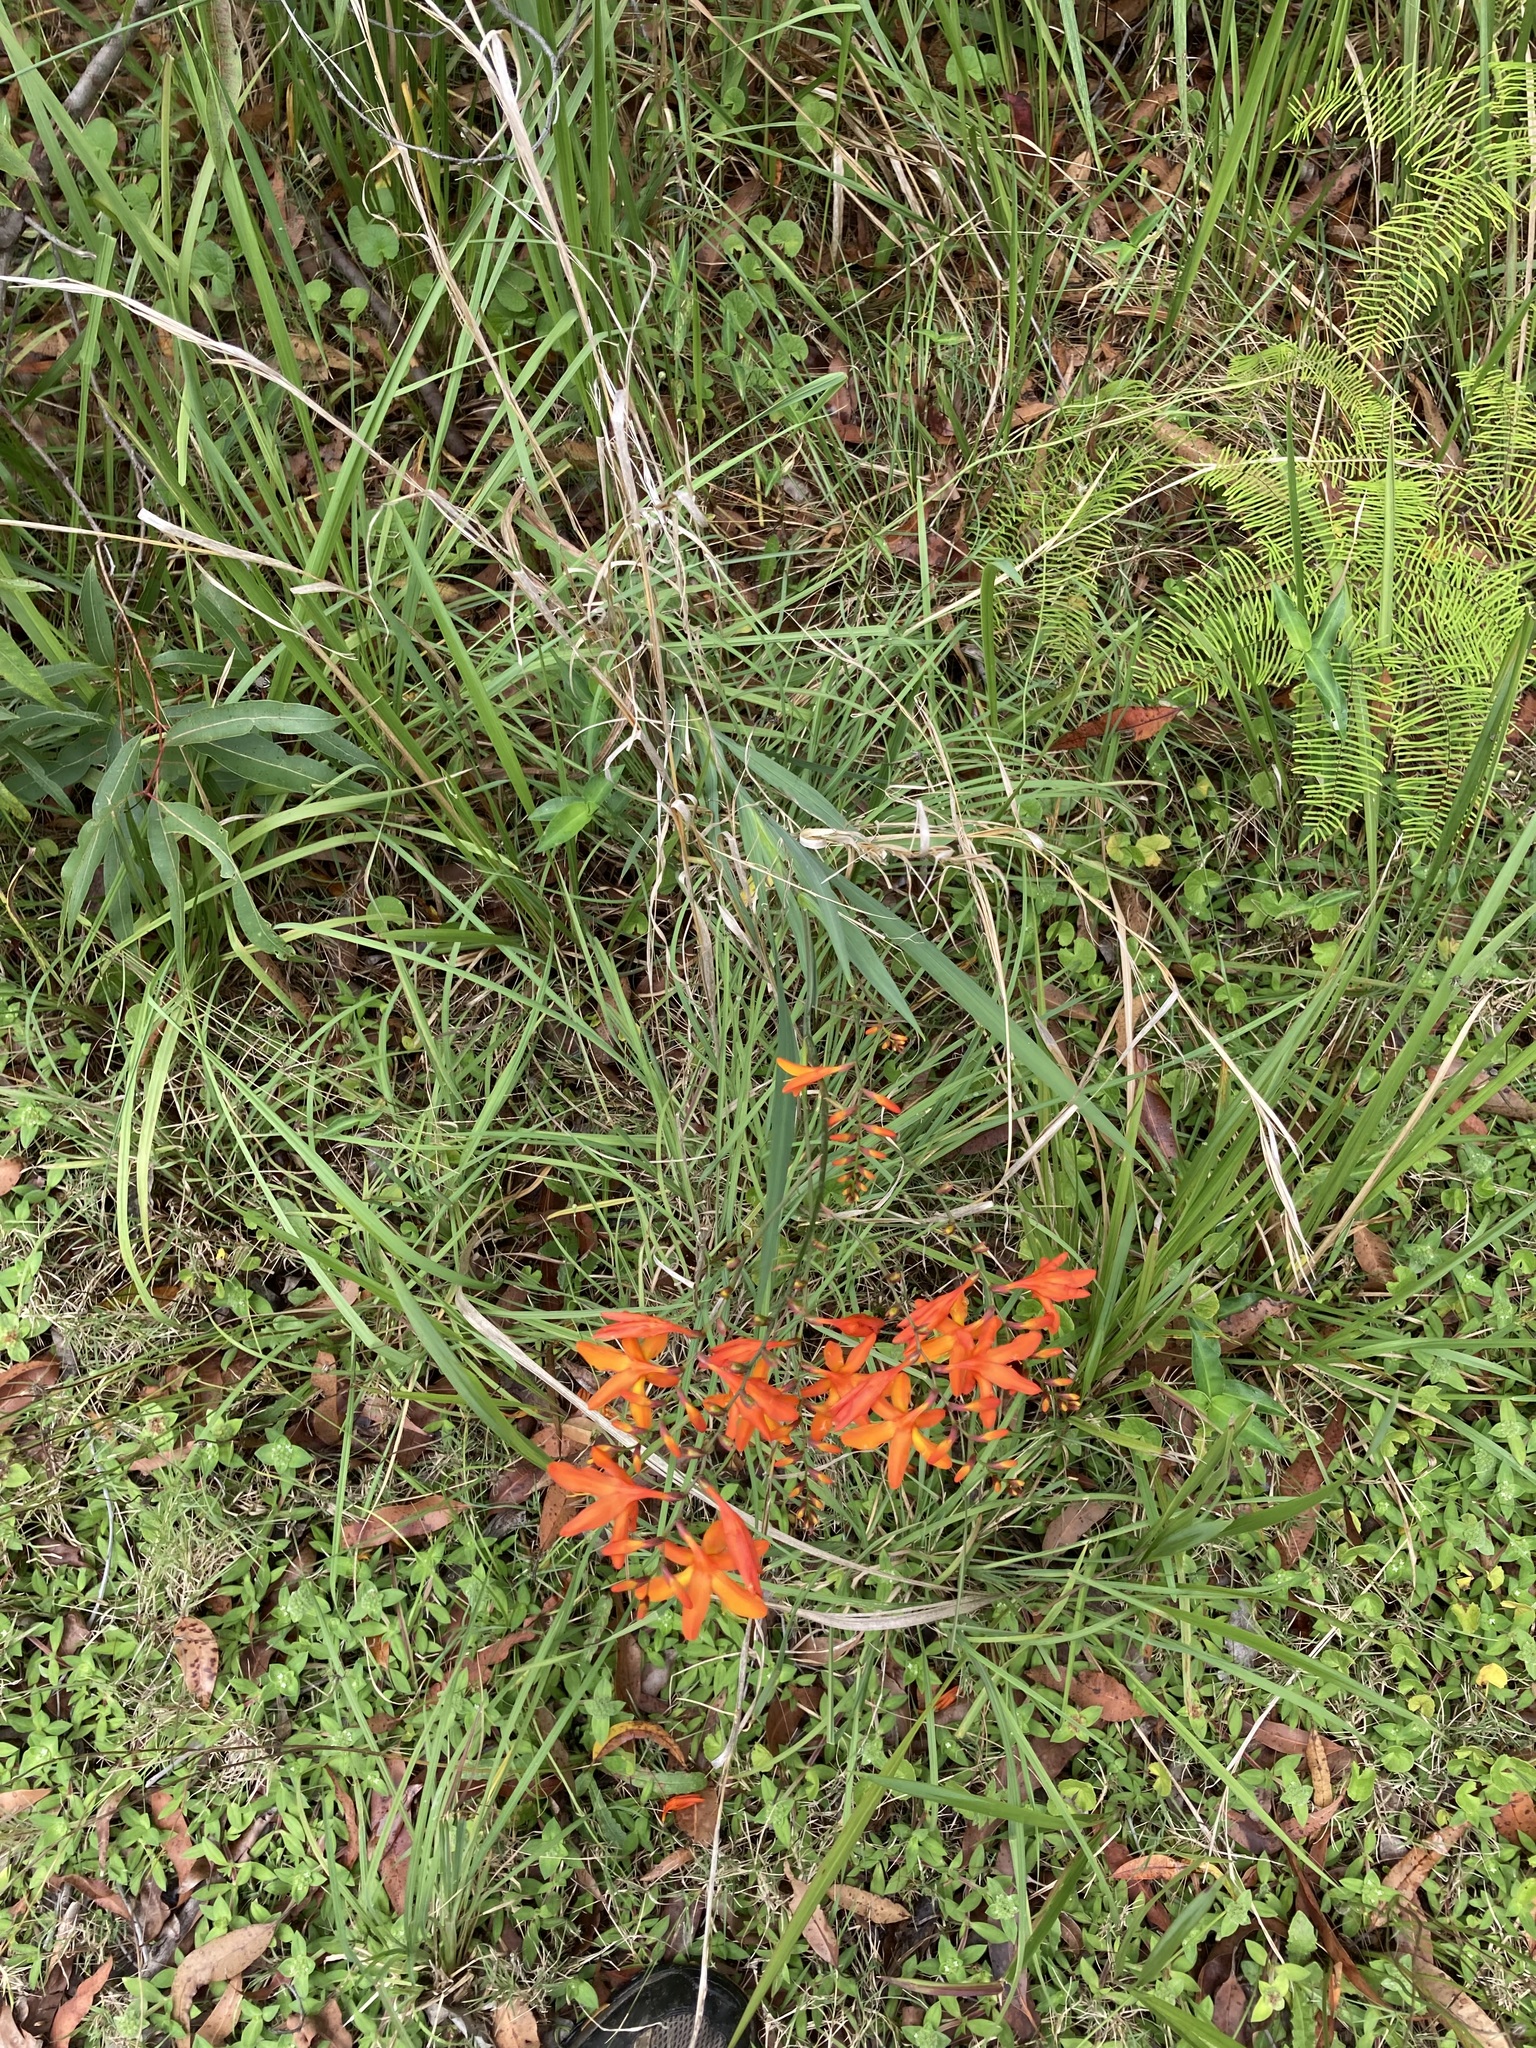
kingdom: Plantae
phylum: Tracheophyta
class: Liliopsida
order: Asparagales
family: Iridaceae
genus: Crocosmia
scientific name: Crocosmia crocosmiiflora
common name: Montbretia
